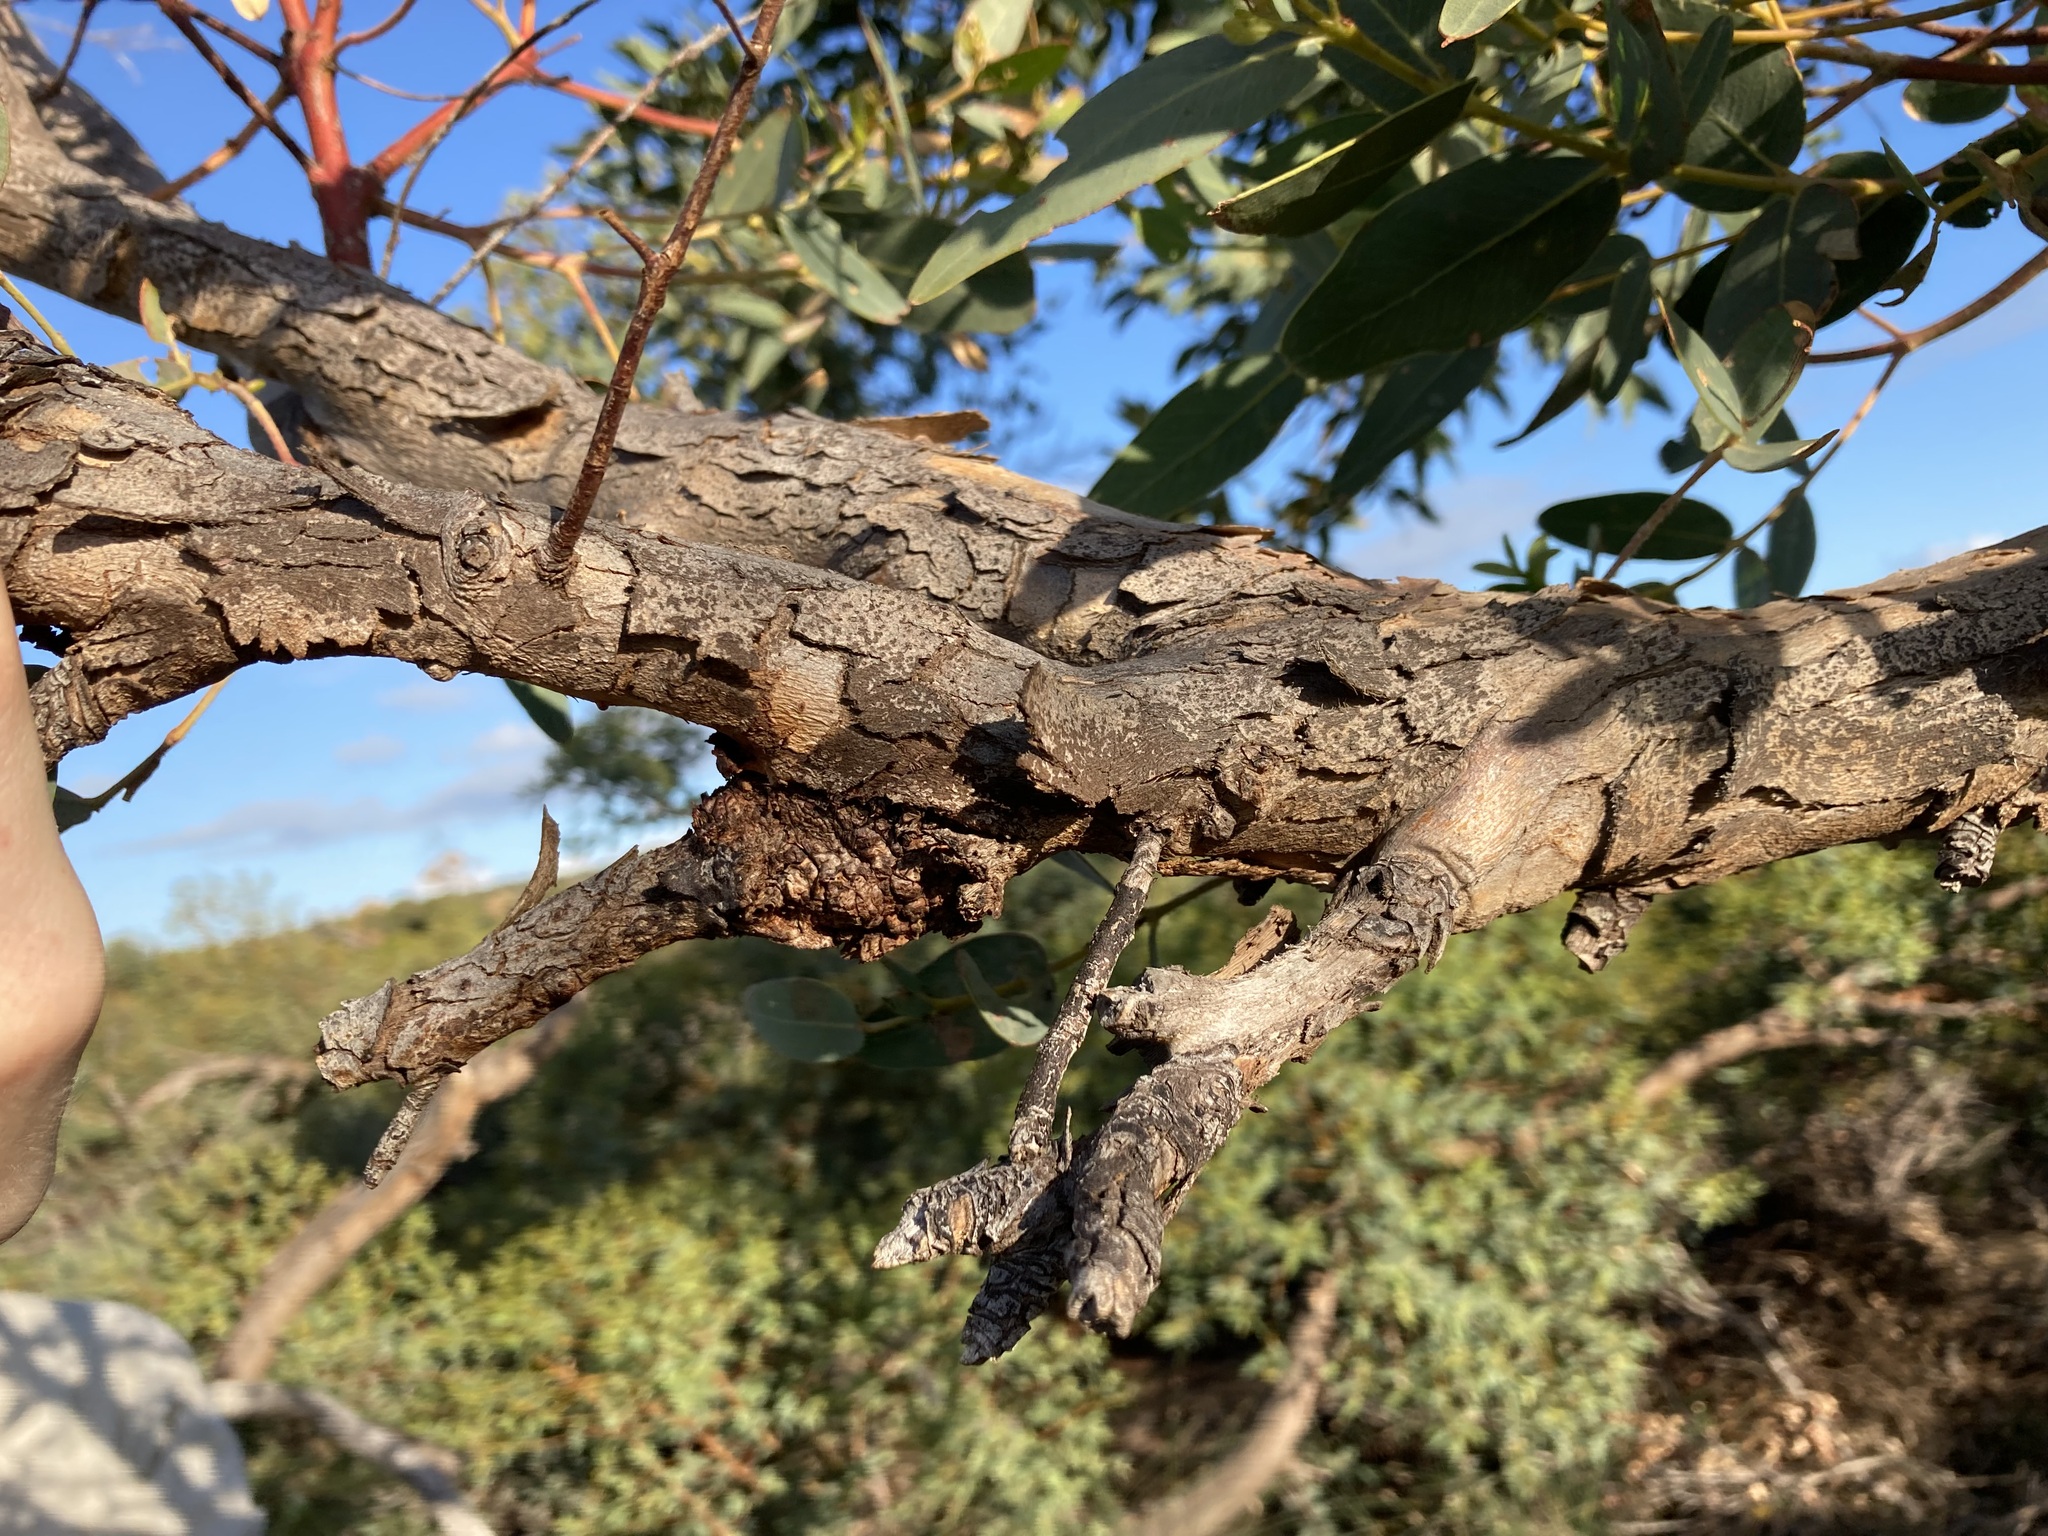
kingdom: Plantae
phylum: Tracheophyta
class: Magnoliopsida
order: Myrtales
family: Myrtaceae
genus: Eucalyptus
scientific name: Eucalyptus eudesmioides
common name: Desert gum
